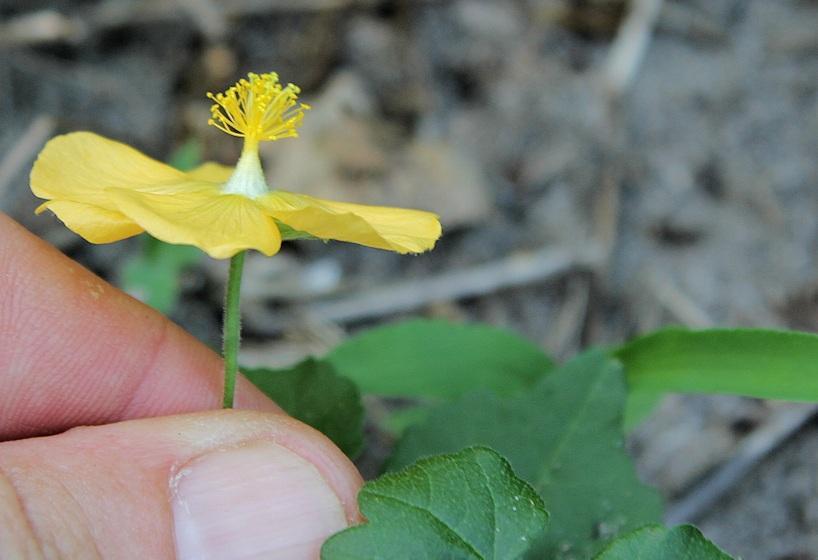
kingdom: Plantae
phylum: Tracheophyta
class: Magnoliopsida
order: Malvales
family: Malvaceae
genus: Abutilon
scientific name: Abutilon grantii
